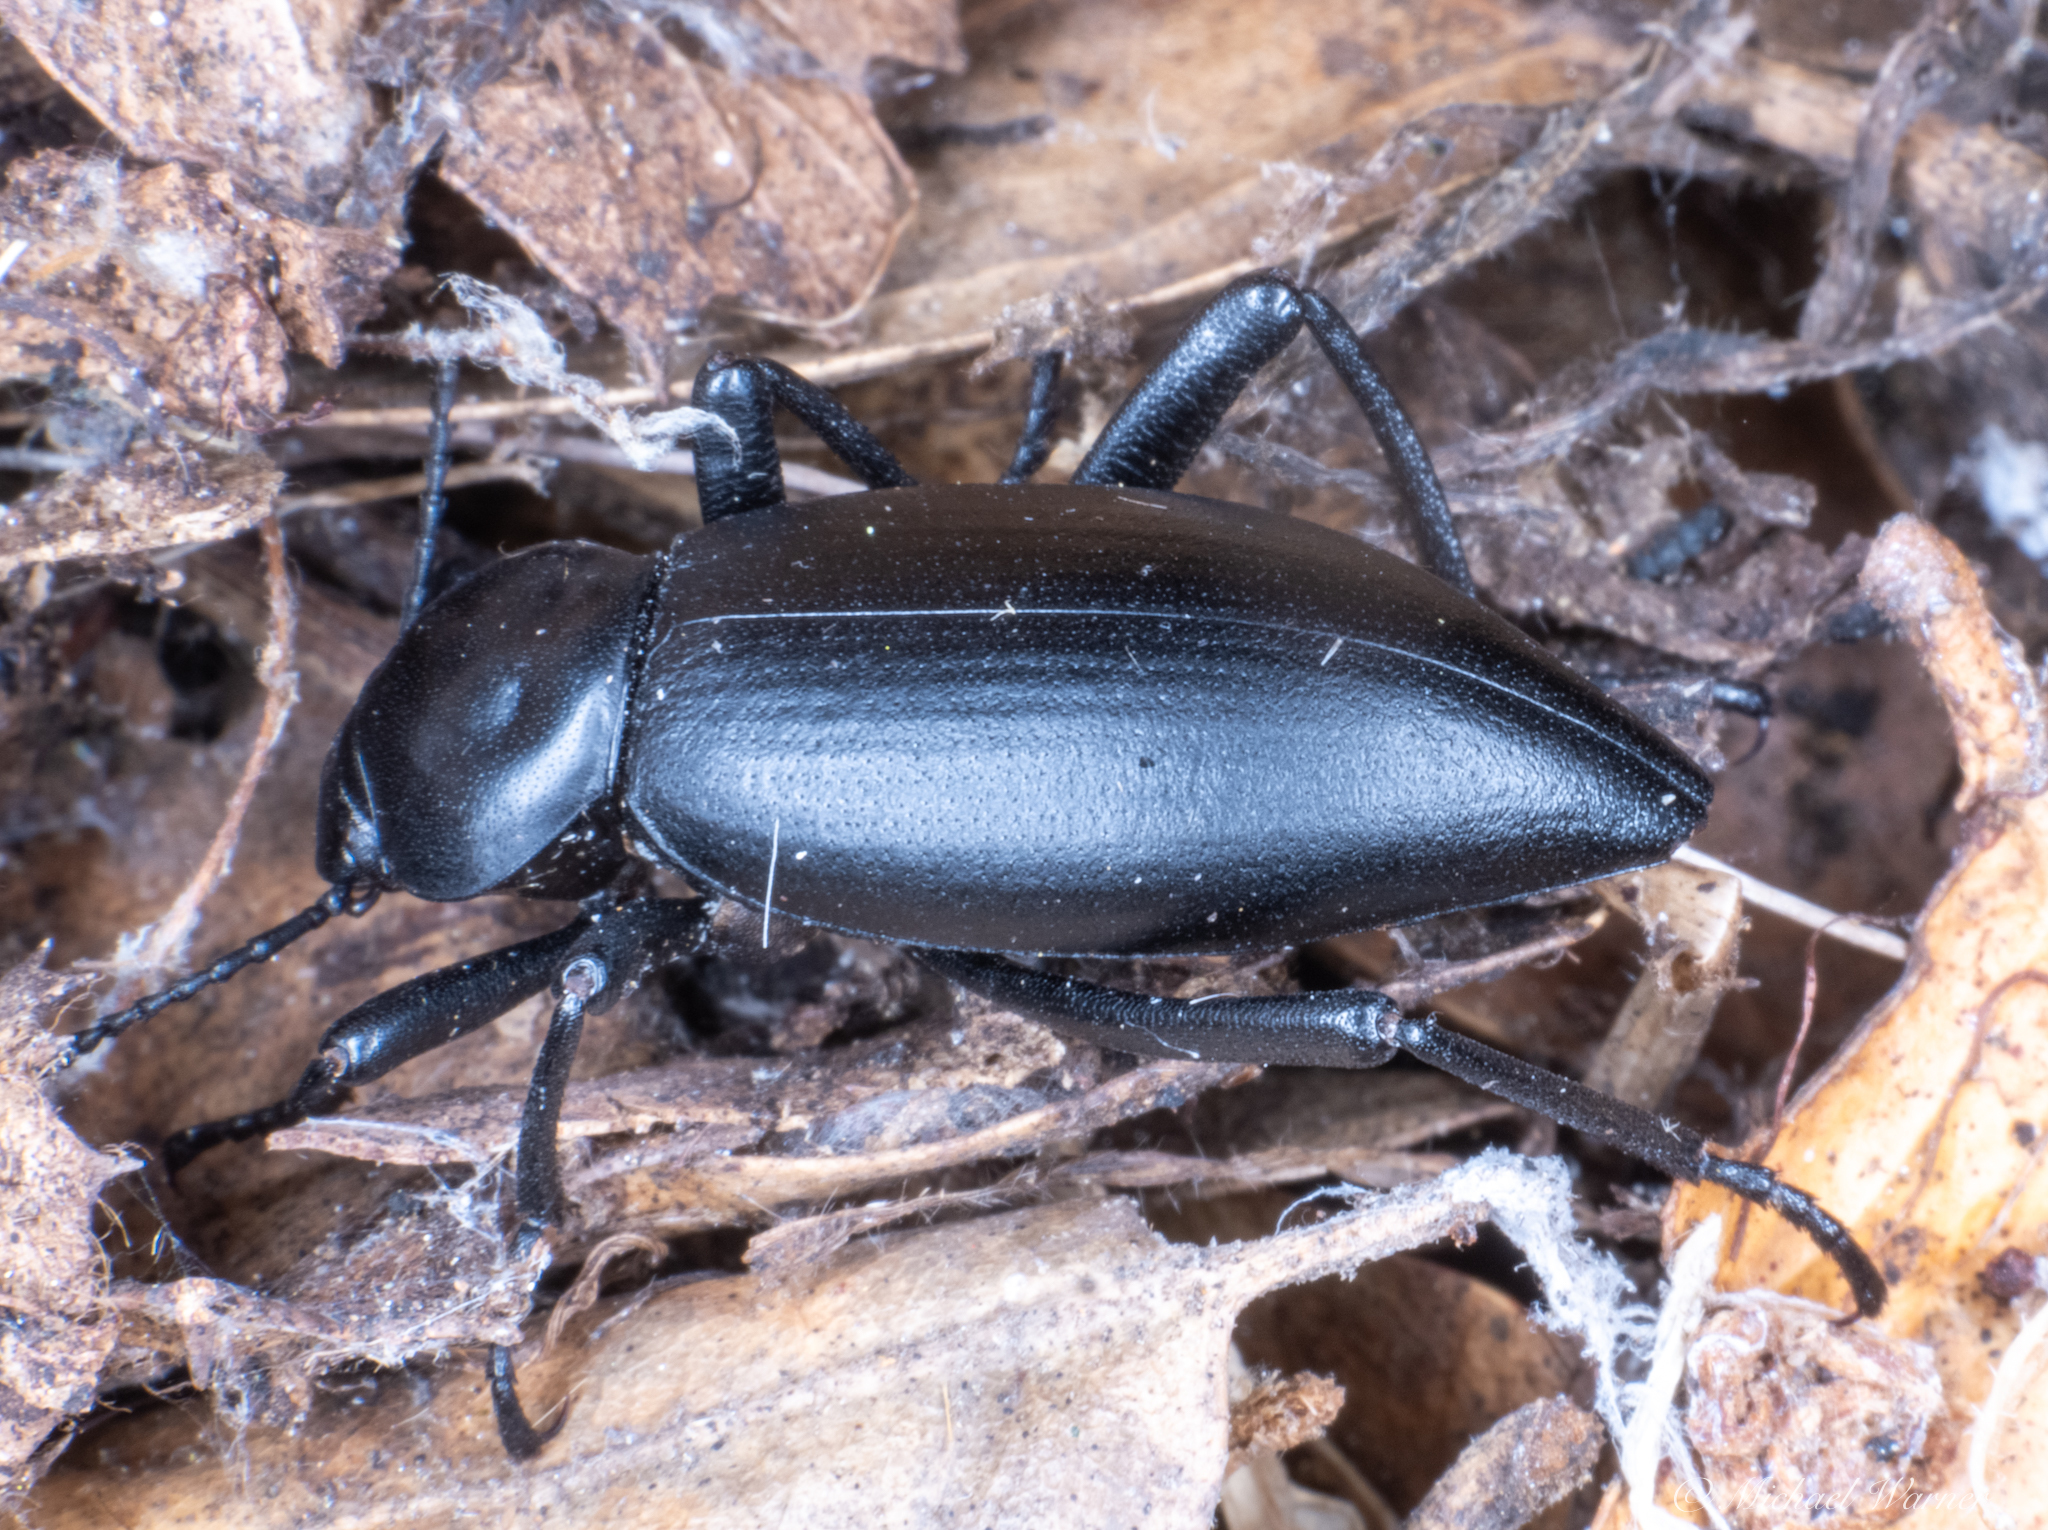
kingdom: Animalia
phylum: Arthropoda
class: Insecta
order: Coleoptera
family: Tenebrionidae
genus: Eleodes
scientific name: Eleodes dentipes
